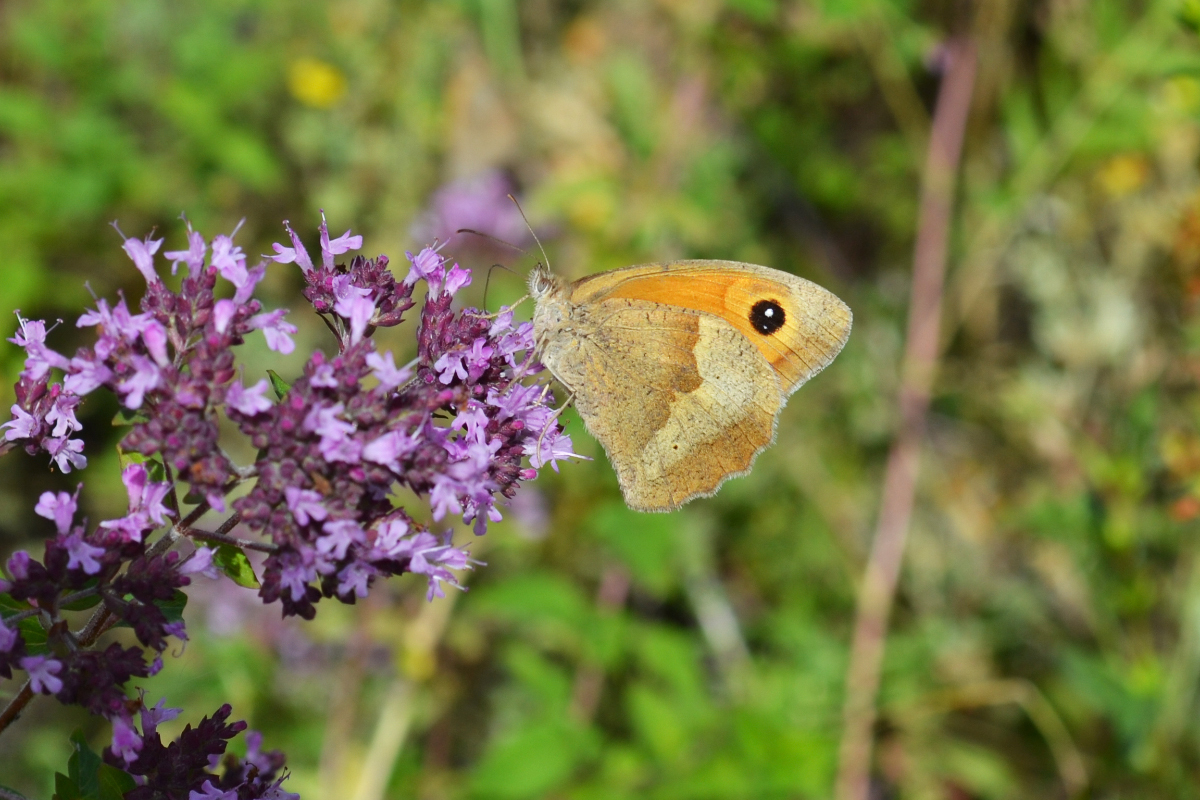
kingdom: Animalia
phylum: Arthropoda
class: Insecta
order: Lepidoptera
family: Nymphalidae
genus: Maniola
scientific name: Maniola jurtina
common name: Meadow brown
